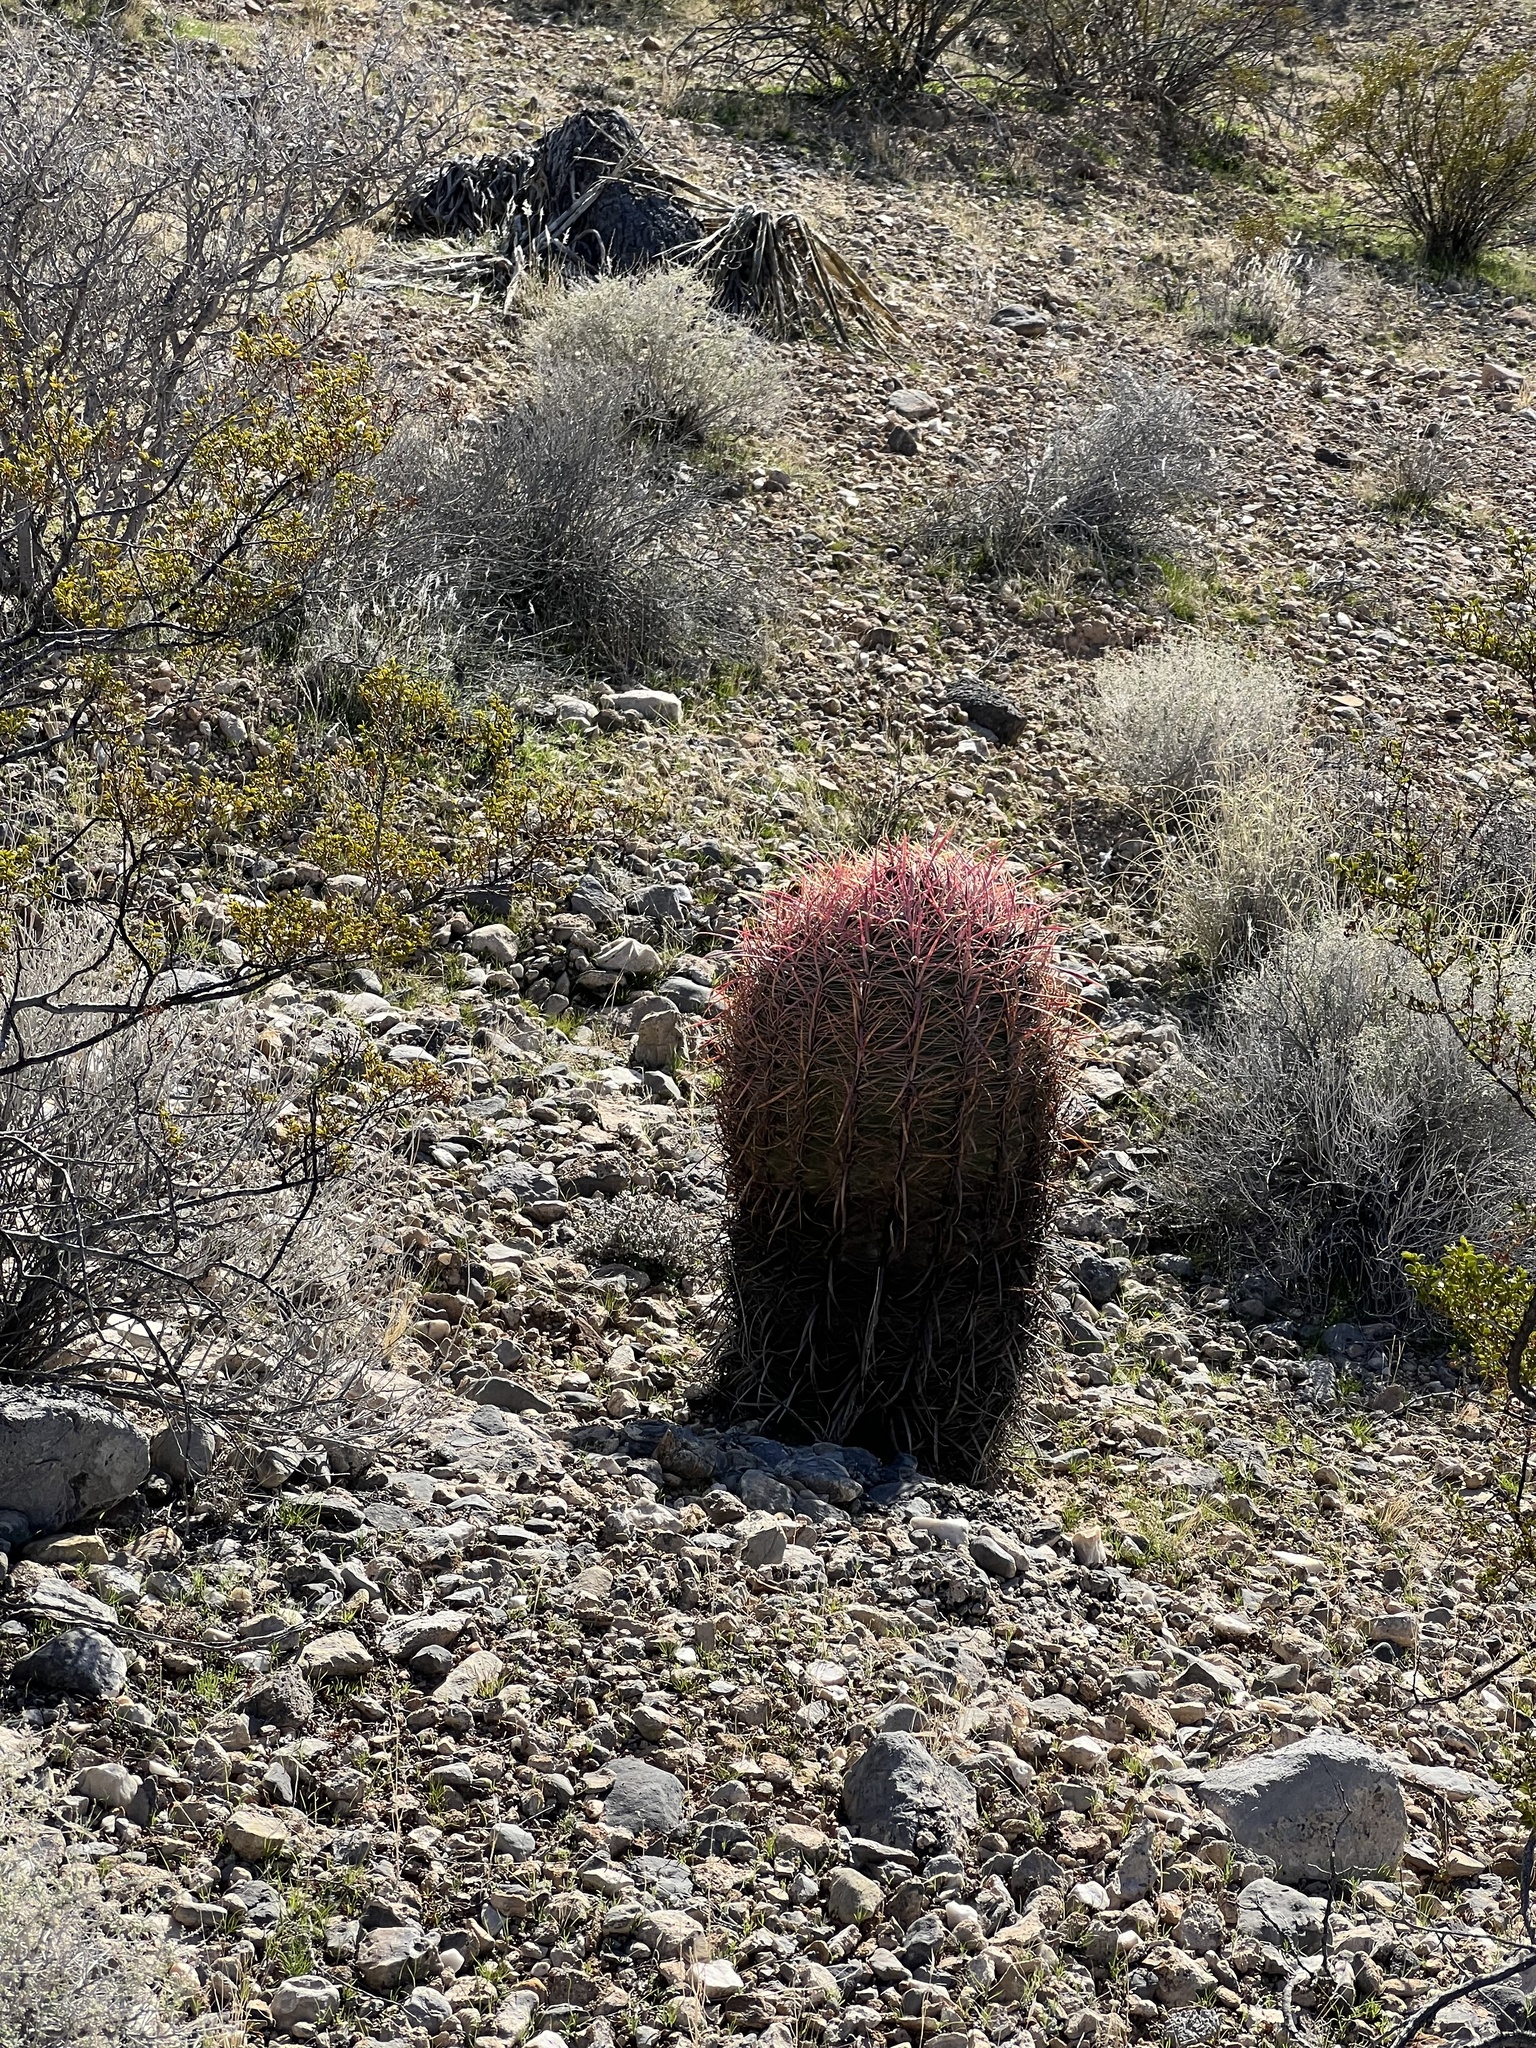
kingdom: Plantae
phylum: Tracheophyta
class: Magnoliopsida
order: Caryophyllales
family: Cactaceae
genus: Ferocactus
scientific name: Ferocactus cylindraceus
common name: California barrel cactus
